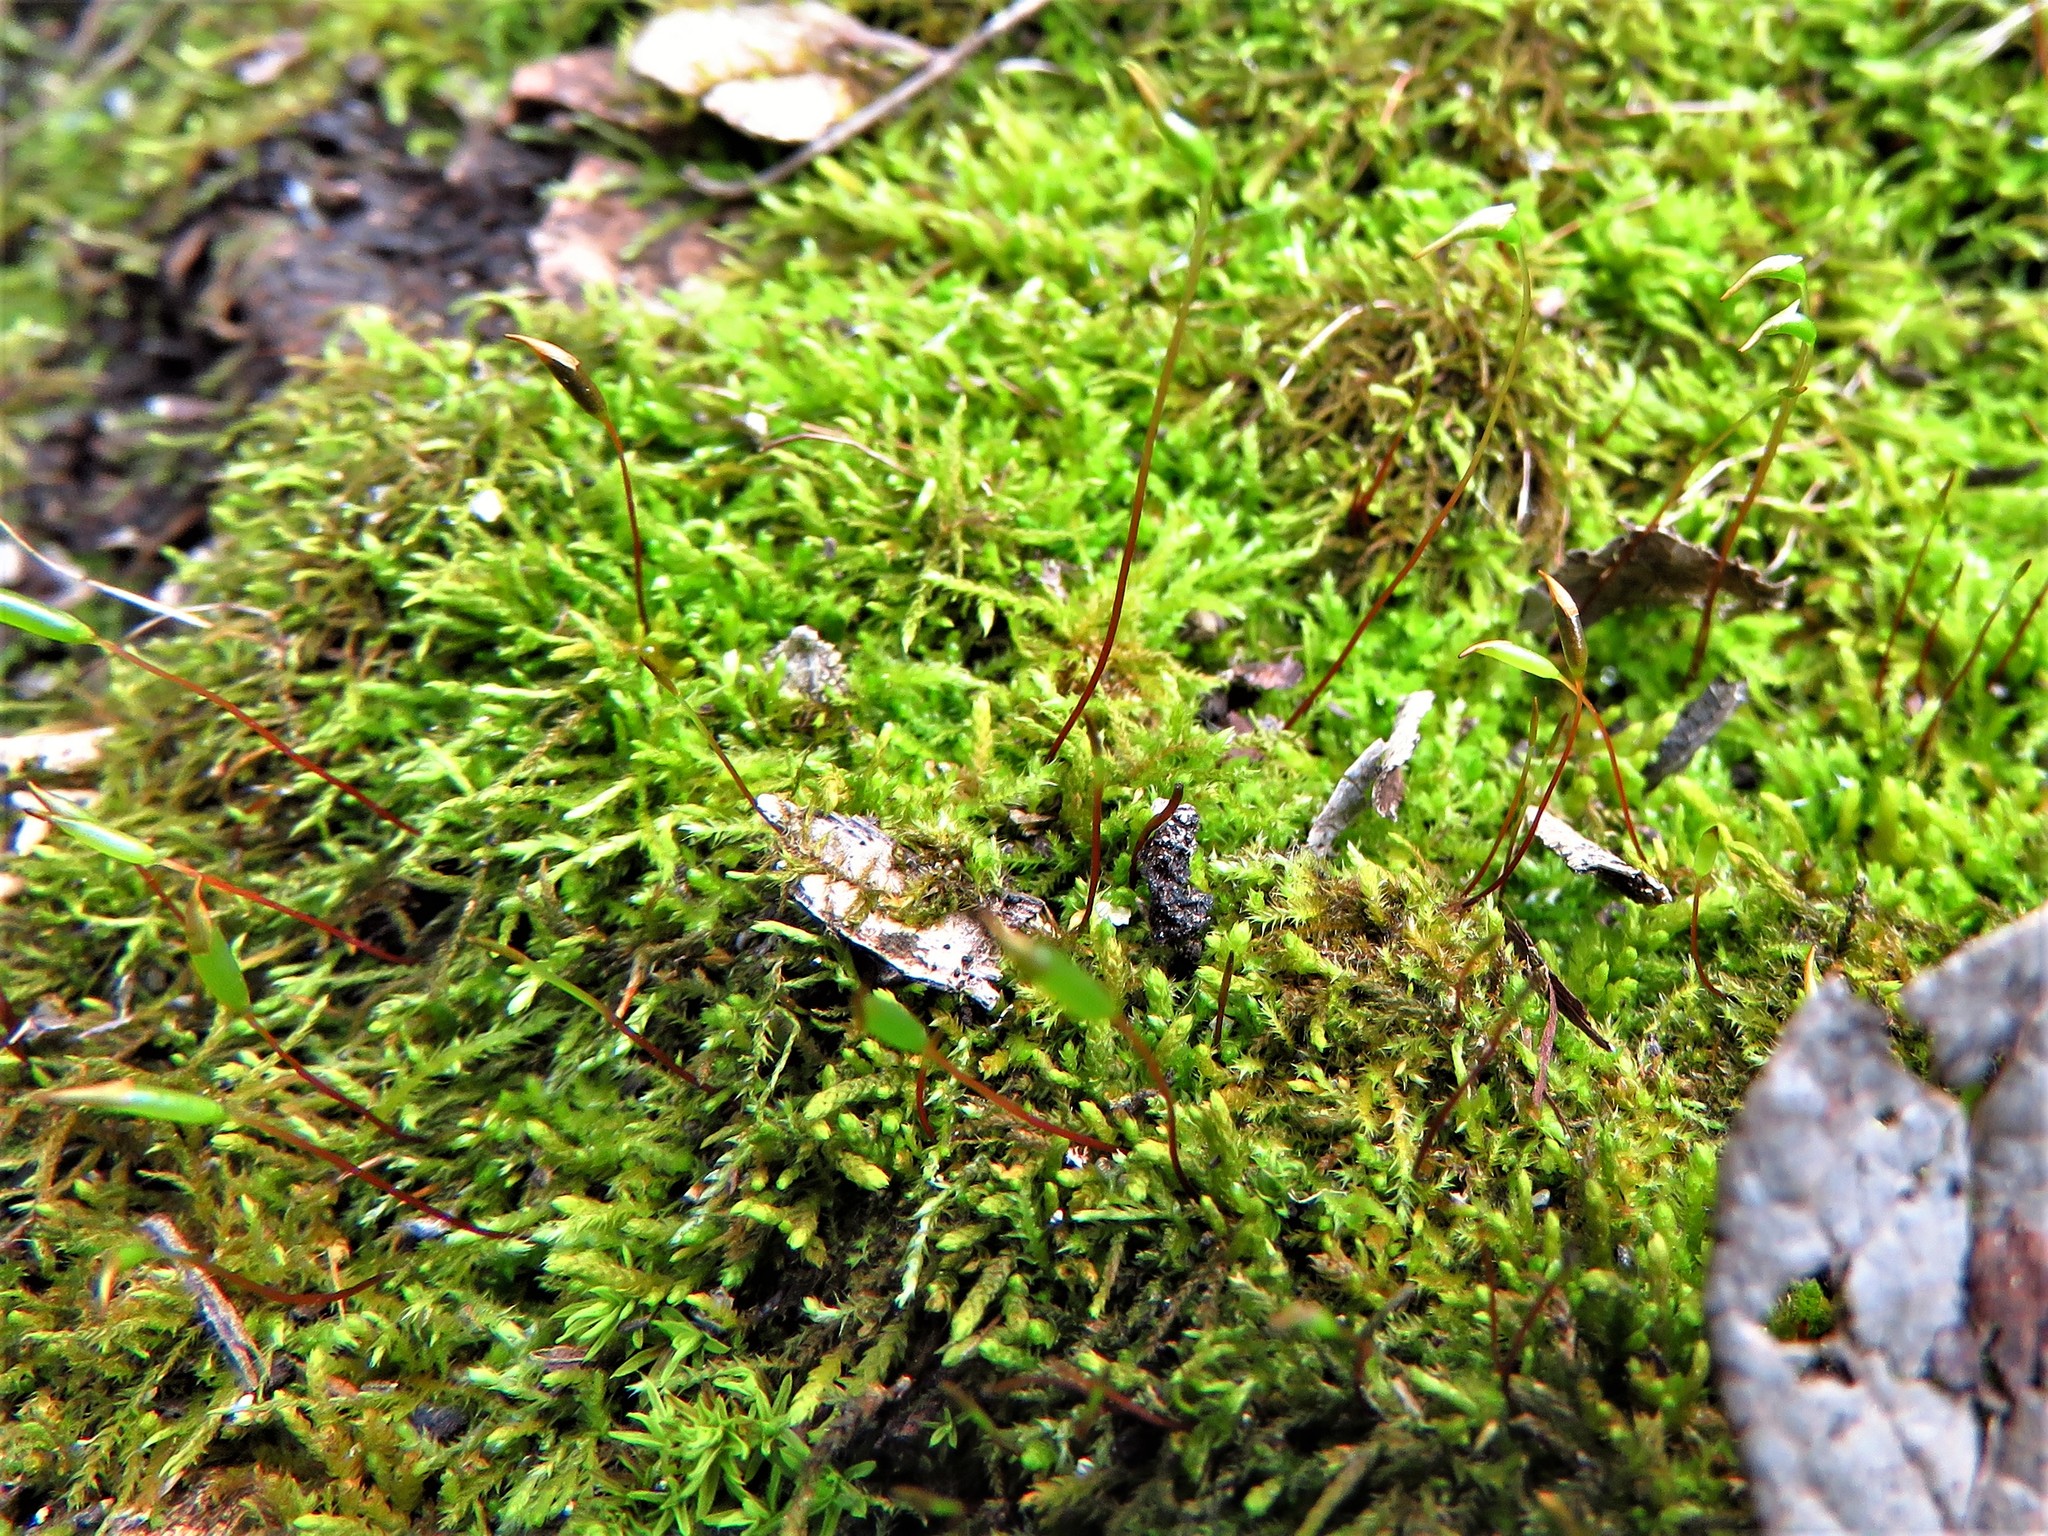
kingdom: Plantae
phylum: Bryophyta
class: Bryopsida
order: Hypnales
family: Amblystegiaceae
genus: Amblystegium
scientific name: Amblystegium serpens
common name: Jurkatzka's feather moss
